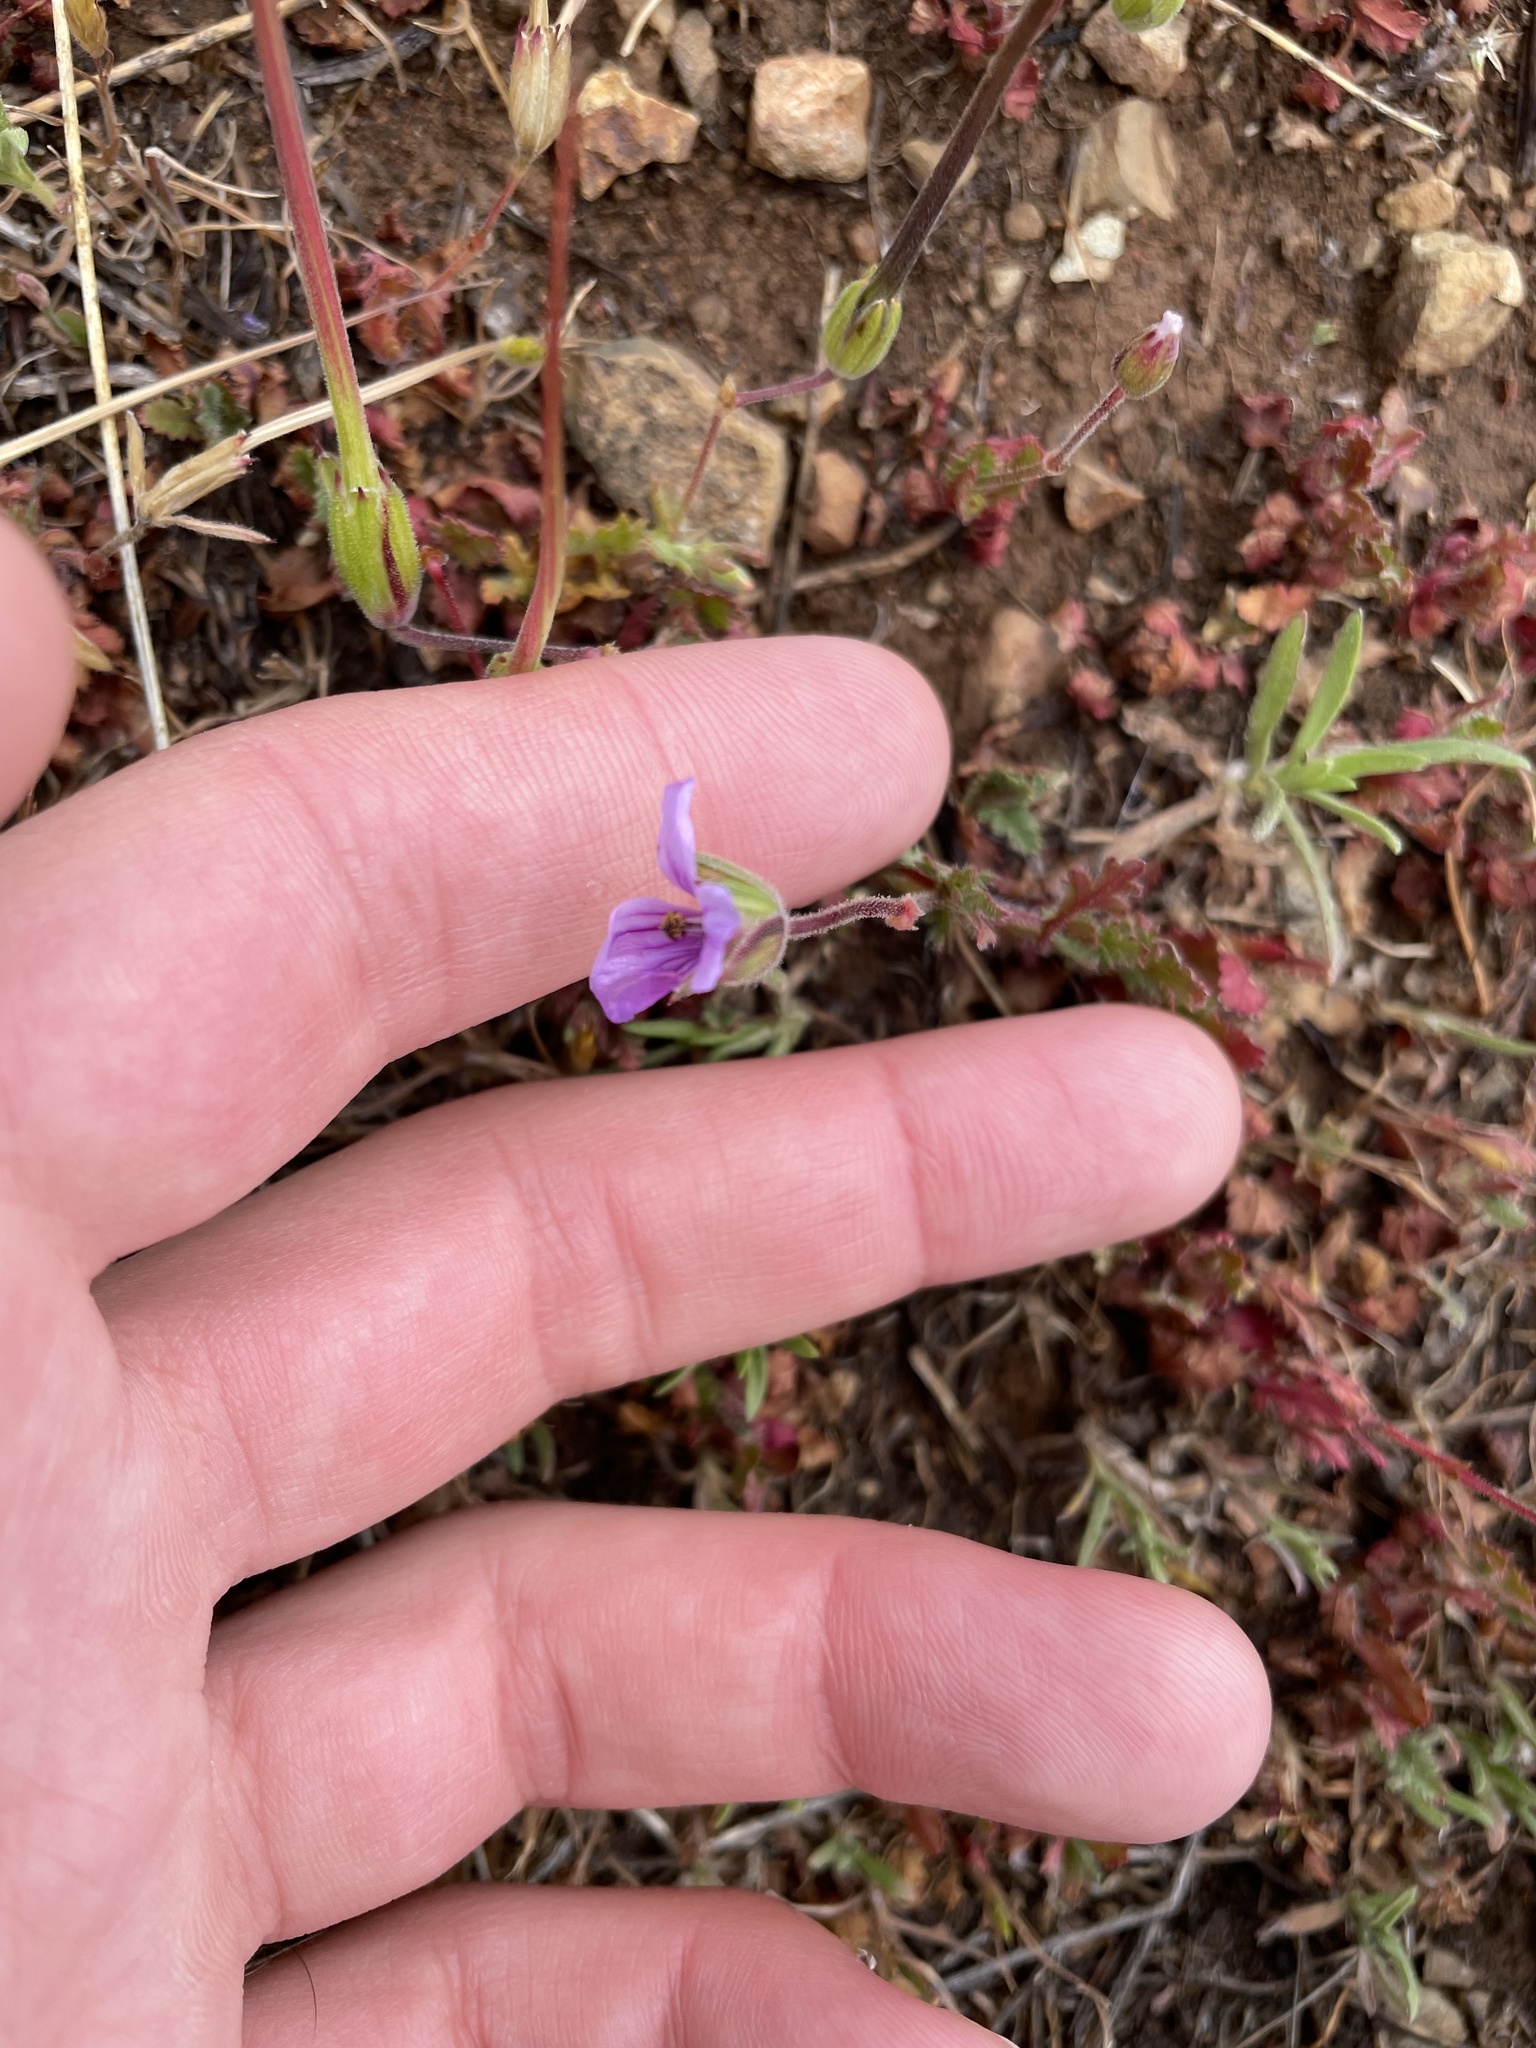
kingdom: Plantae
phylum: Tracheophyta
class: Magnoliopsida
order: Geraniales
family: Geraniaceae
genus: Erodium
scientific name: Erodium botrys
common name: Mediterranean stork's-bill
